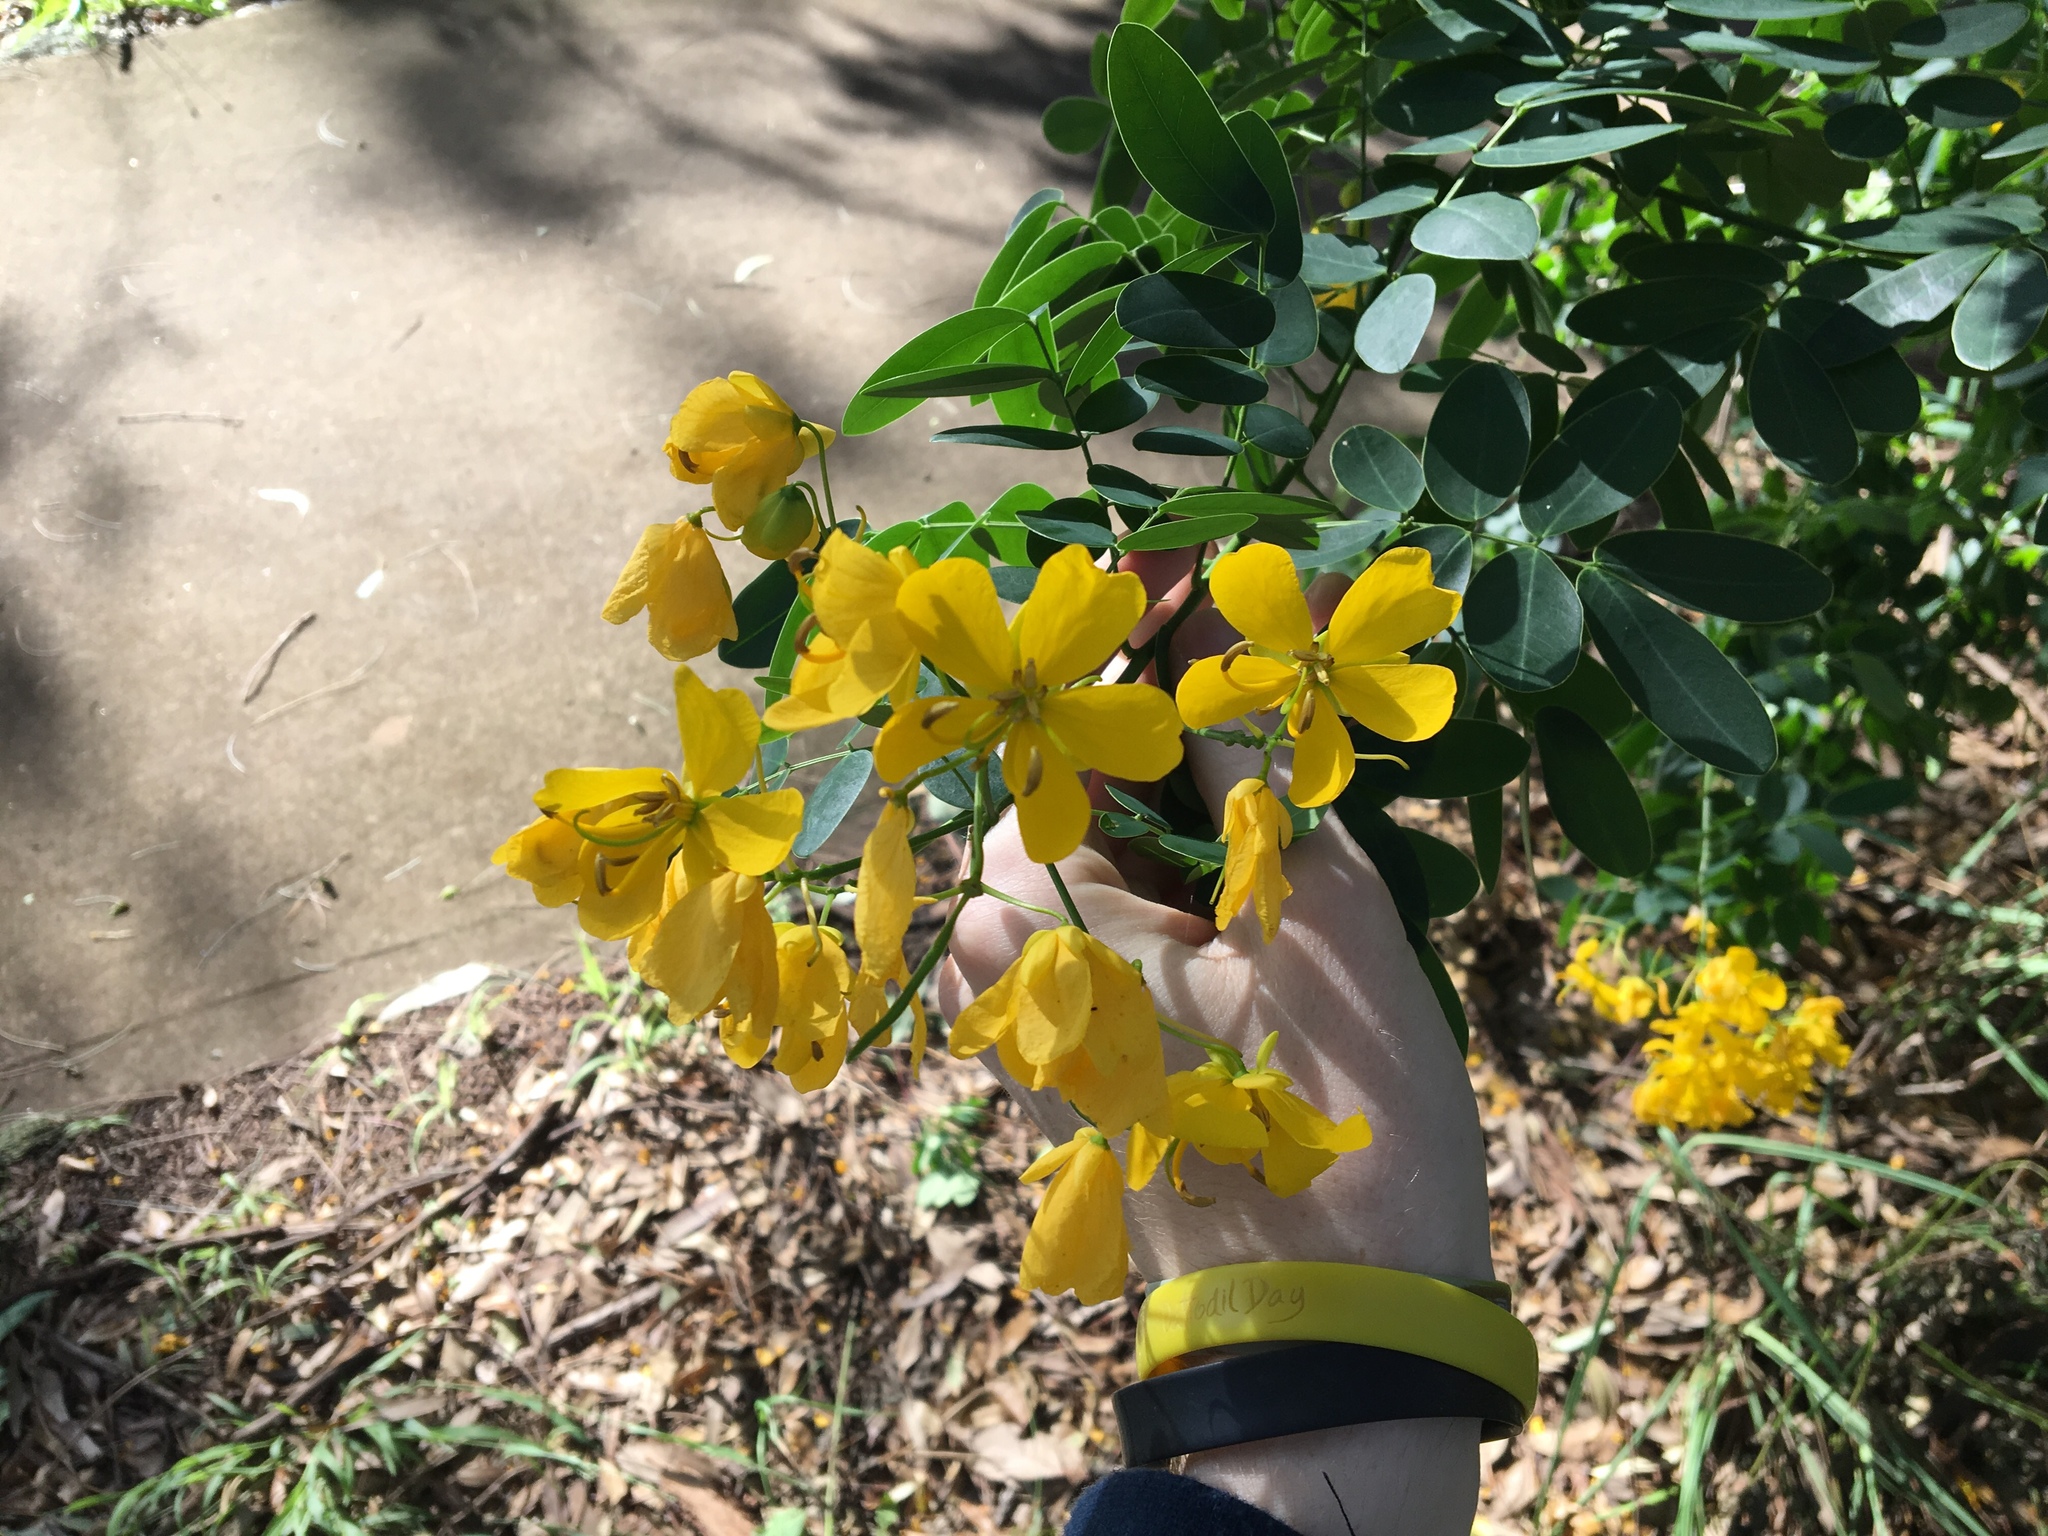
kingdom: Plantae
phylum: Tracheophyta
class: Magnoliopsida
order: Fabales
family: Fabaceae
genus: Senna
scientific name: Senna pendula
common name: Easter cassia
